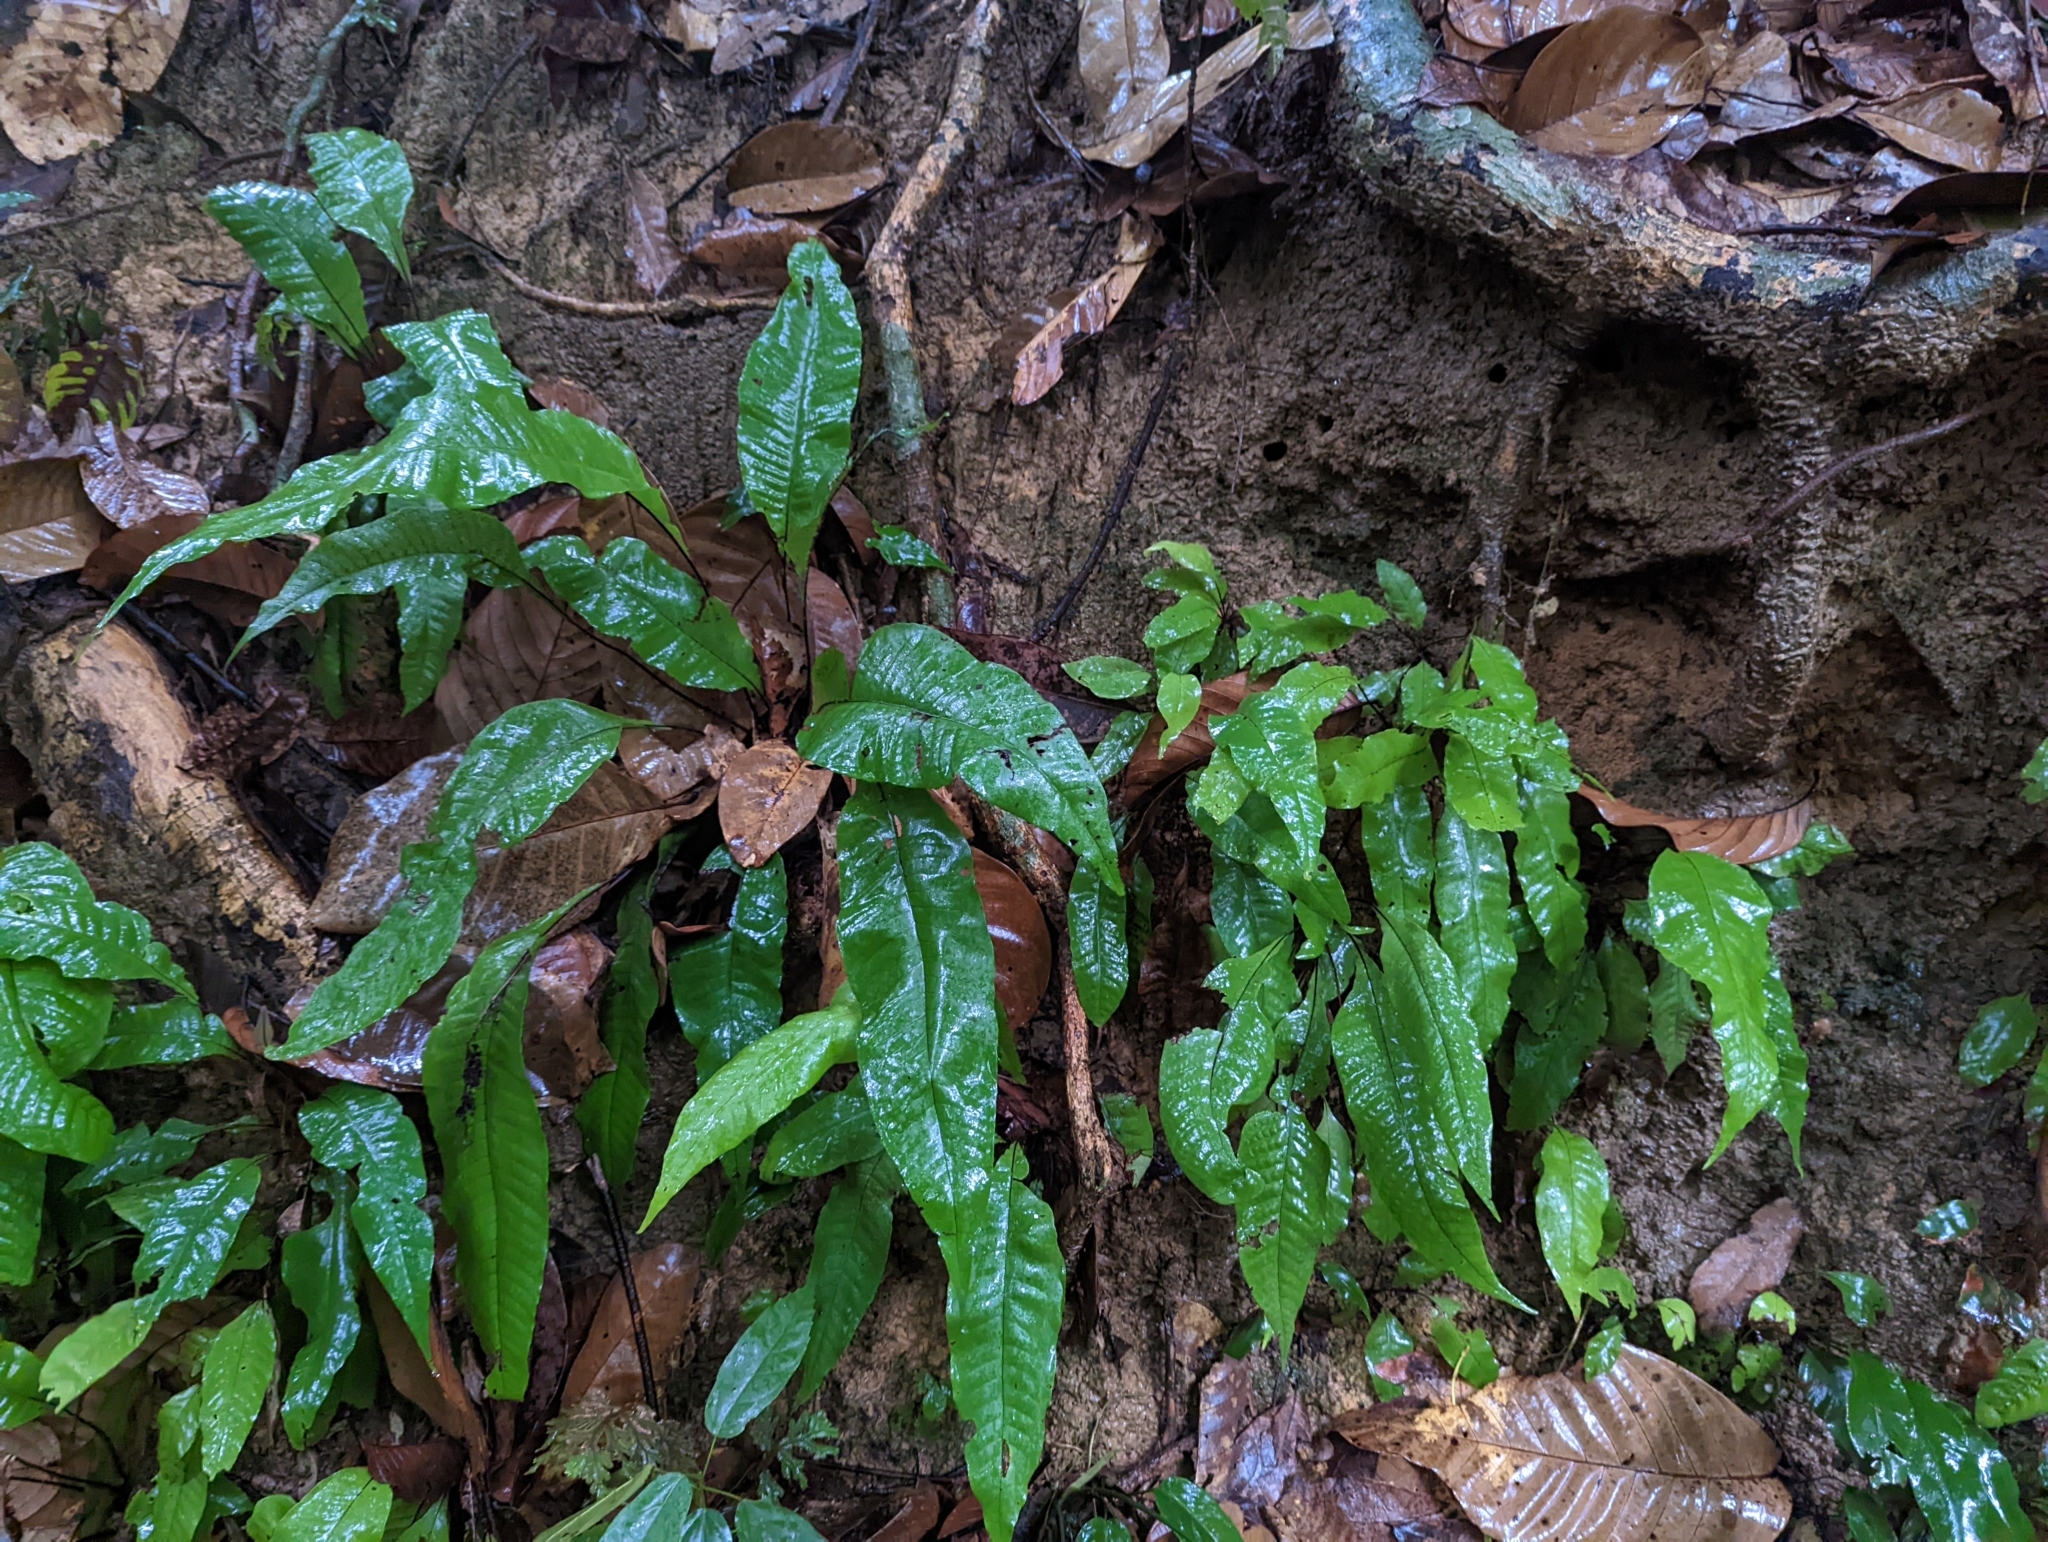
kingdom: Plantae
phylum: Tracheophyta
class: Polypodiopsida
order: Polypodiales
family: Tectariaceae
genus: Tectaria
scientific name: Tectaria singaporiana
